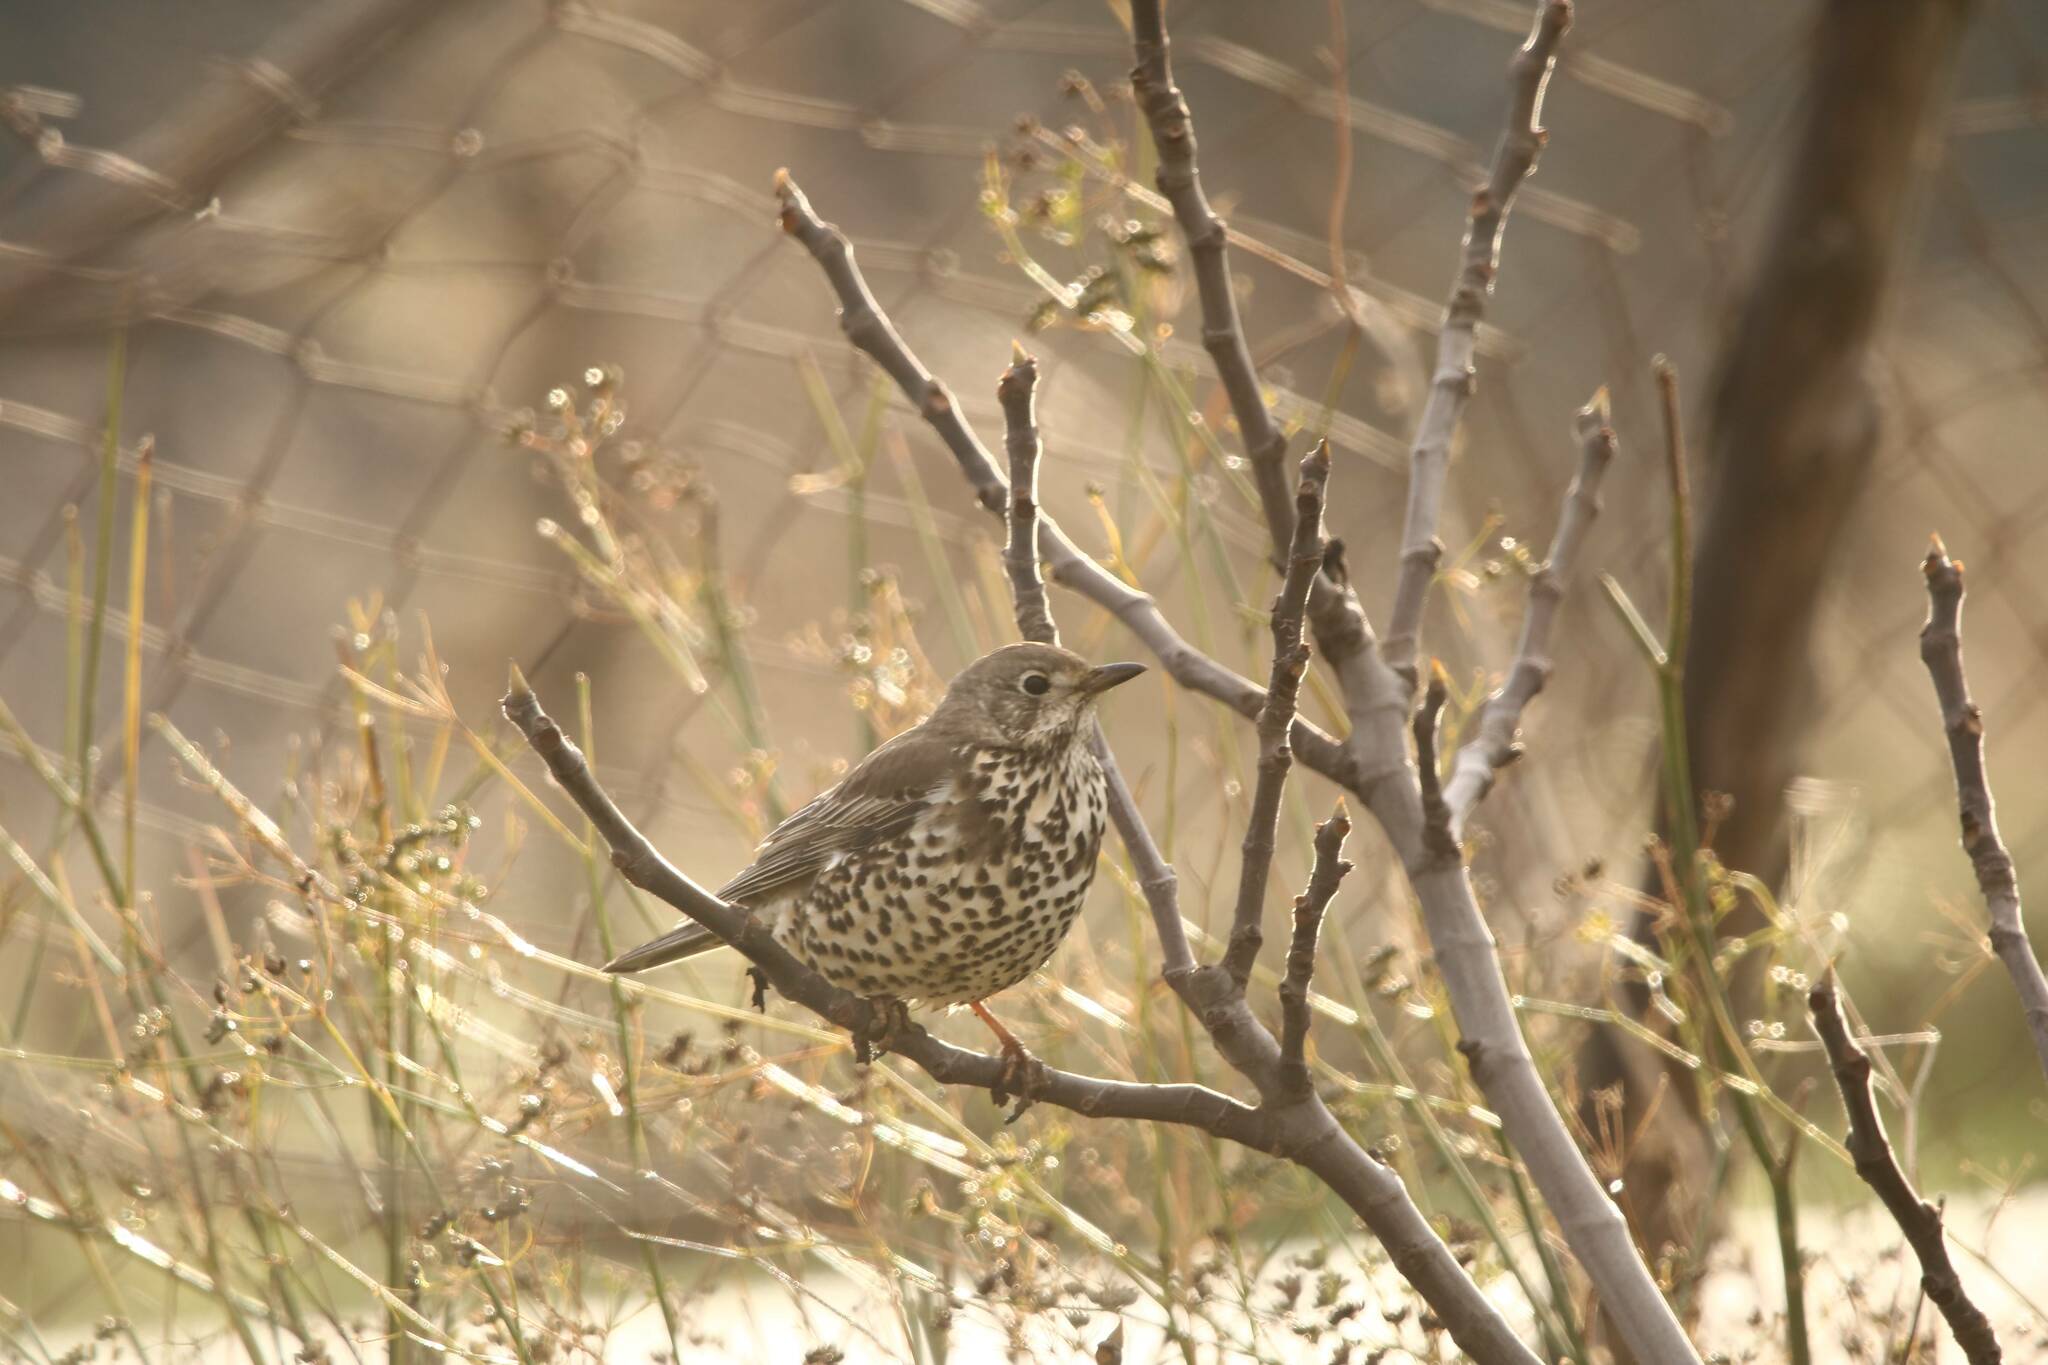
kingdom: Animalia
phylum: Chordata
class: Aves
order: Passeriformes
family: Turdidae
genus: Turdus
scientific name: Turdus viscivorus
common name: Mistle thrush
